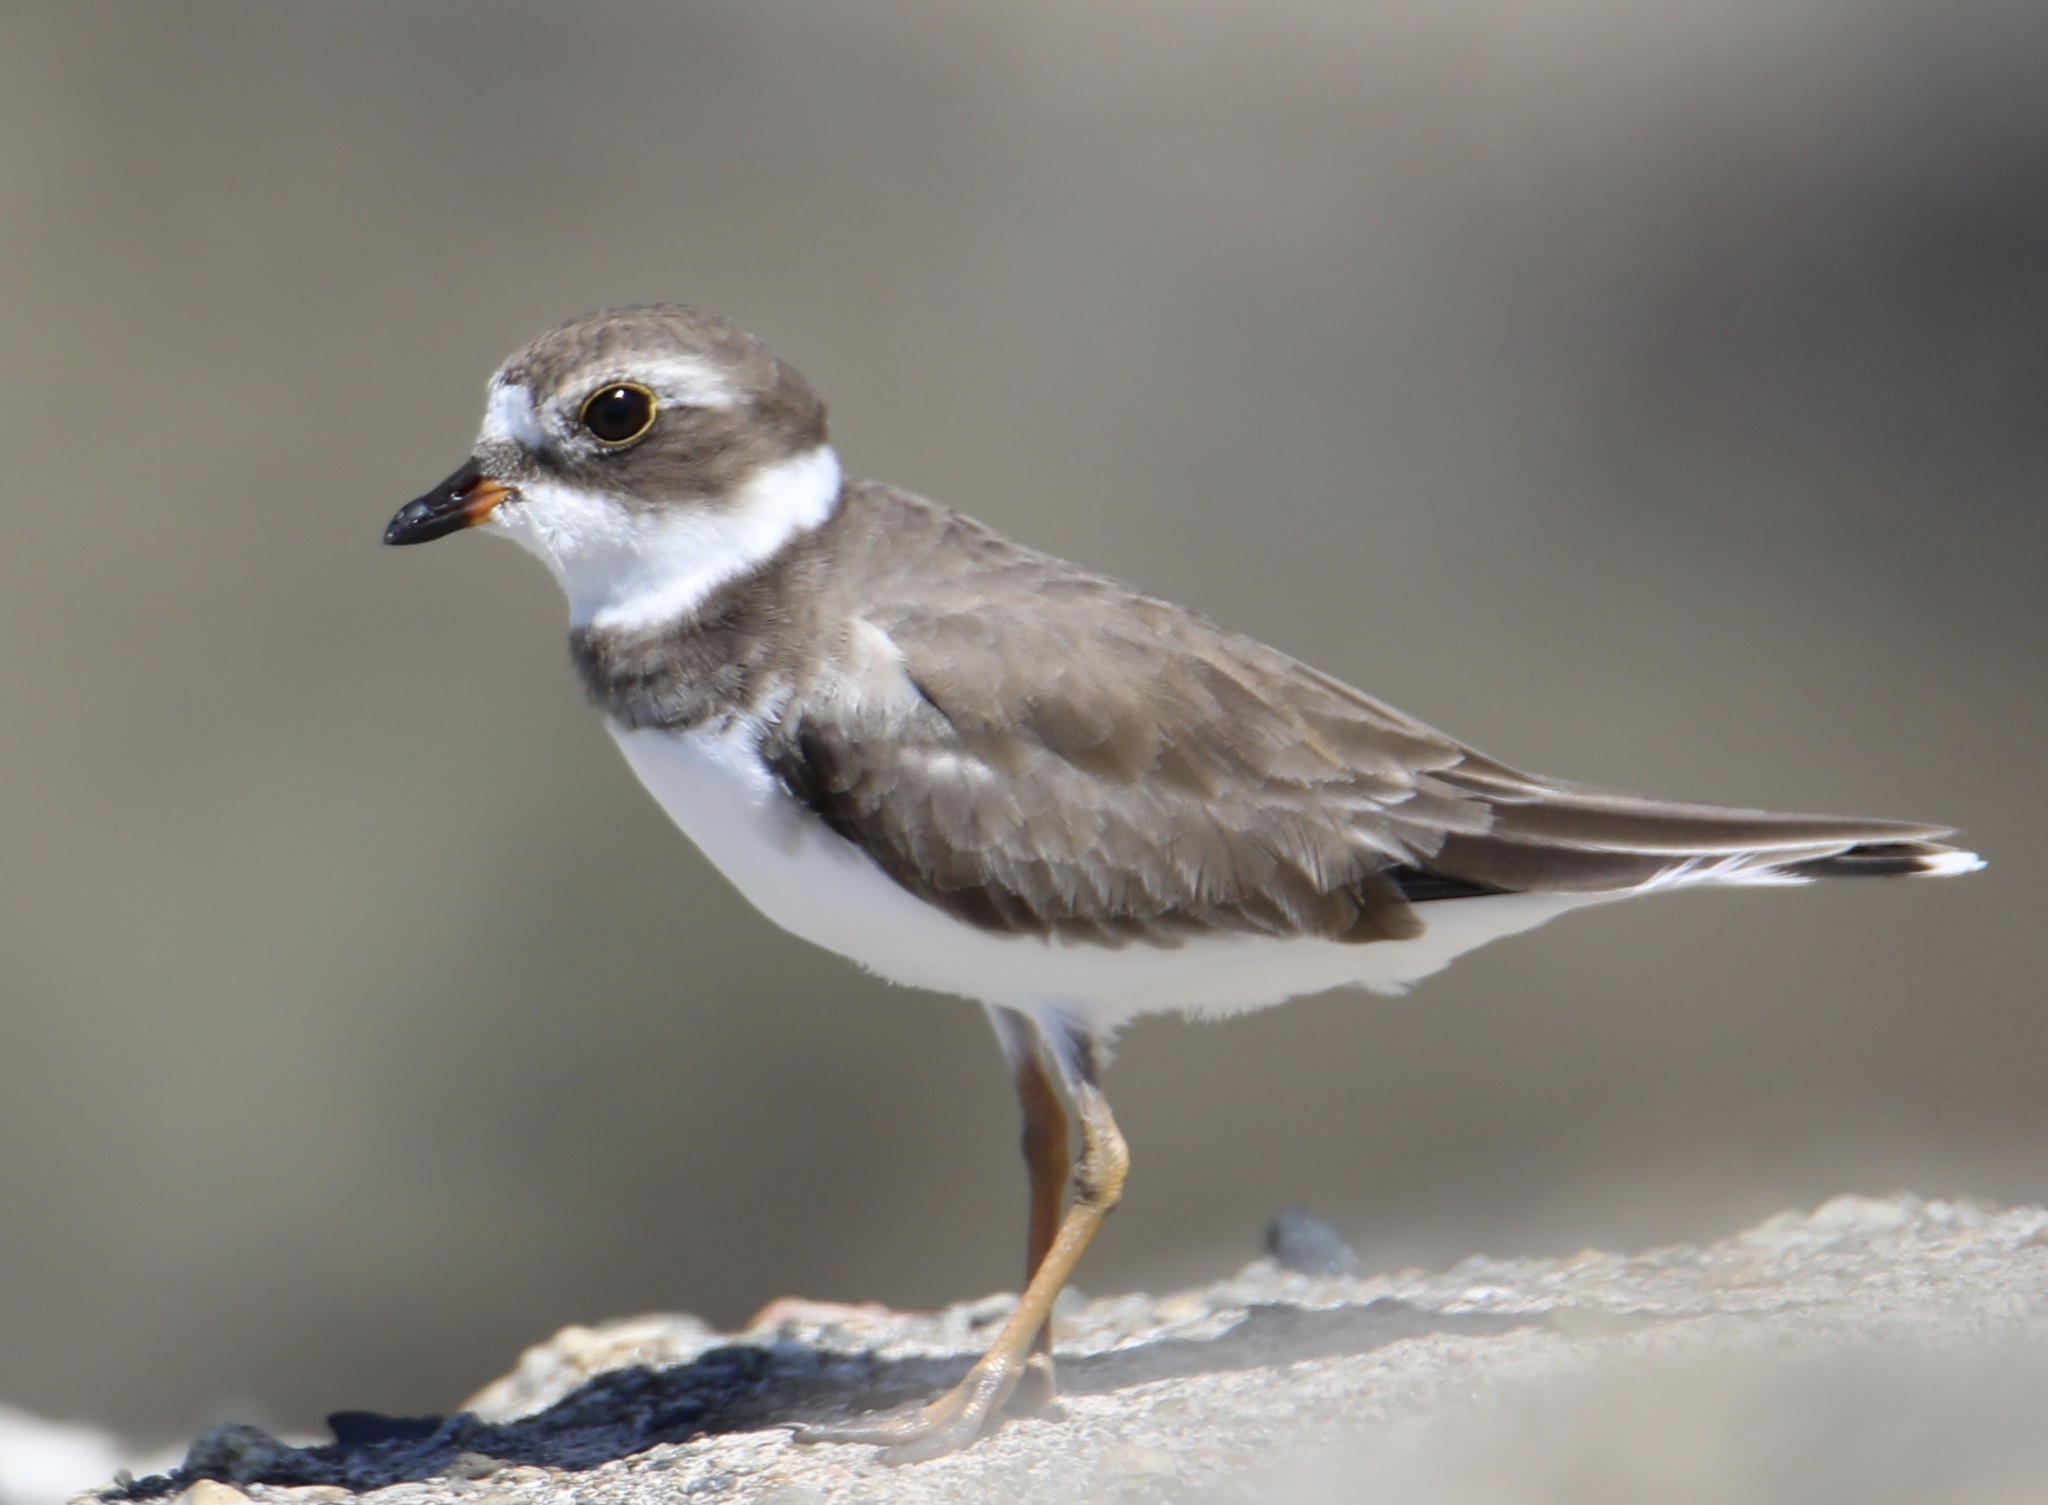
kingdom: Animalia
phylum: Chordata
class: Aves
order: Charadriiformes
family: Charadriidae
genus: Charadrius
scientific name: Charadrius semipalmatus
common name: Semipalmated plover
